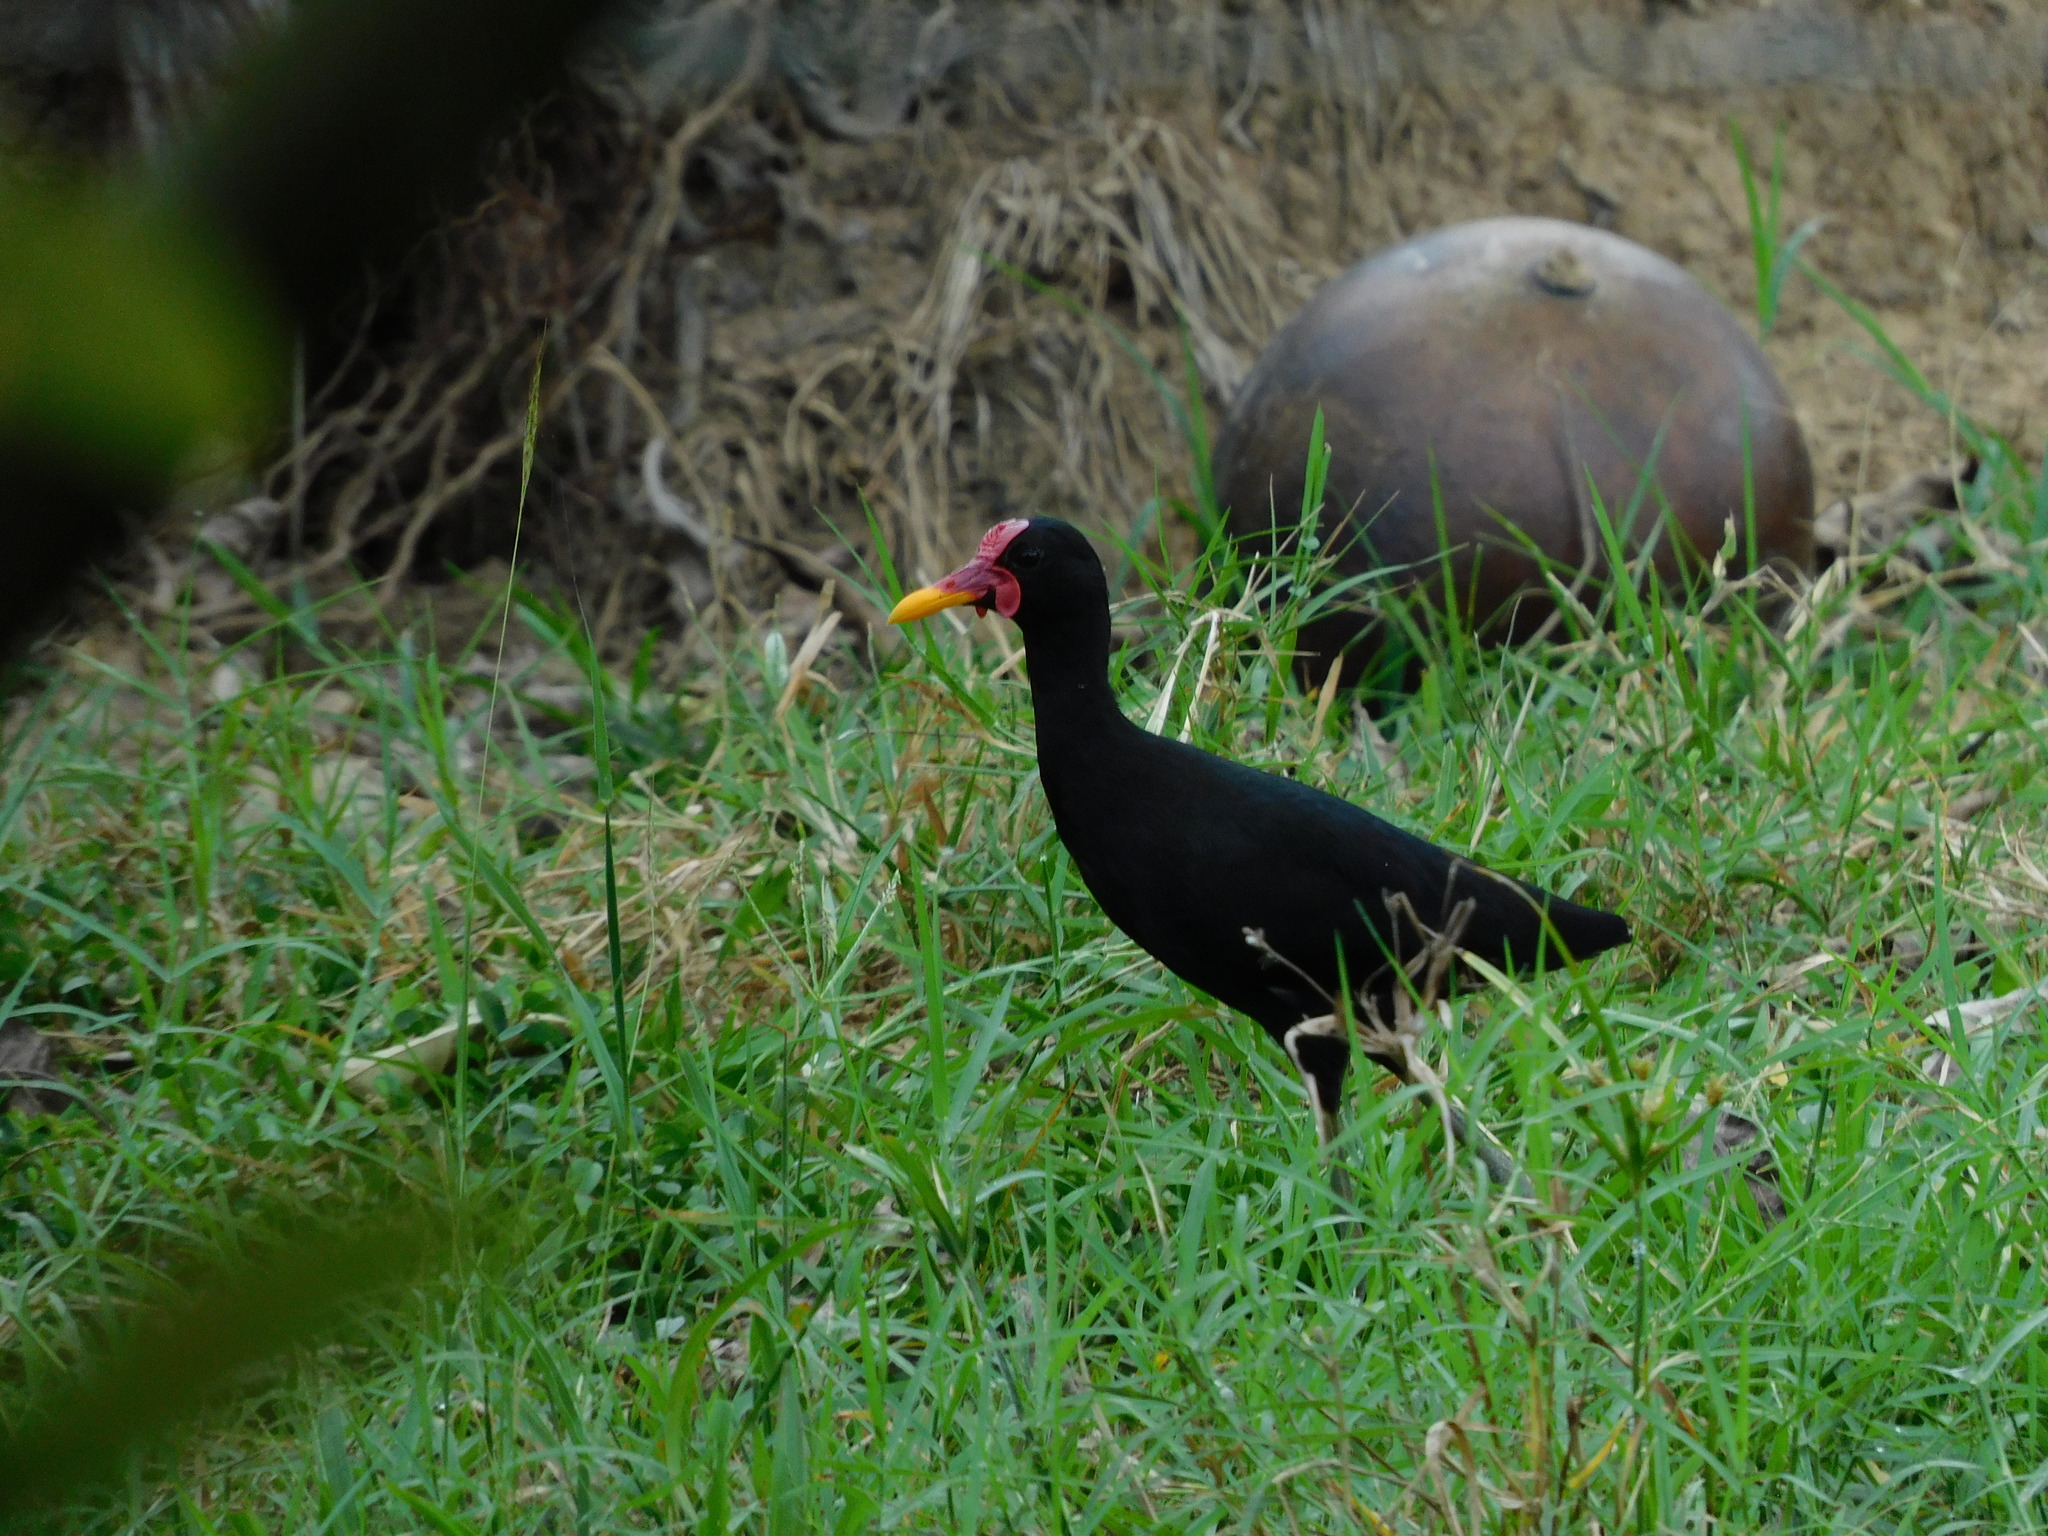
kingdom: Animalia
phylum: Chordata
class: Aves
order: Charadriiformes
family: Jacanidae
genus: Jacana
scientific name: Jacana jacana
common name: Wattled jacana
